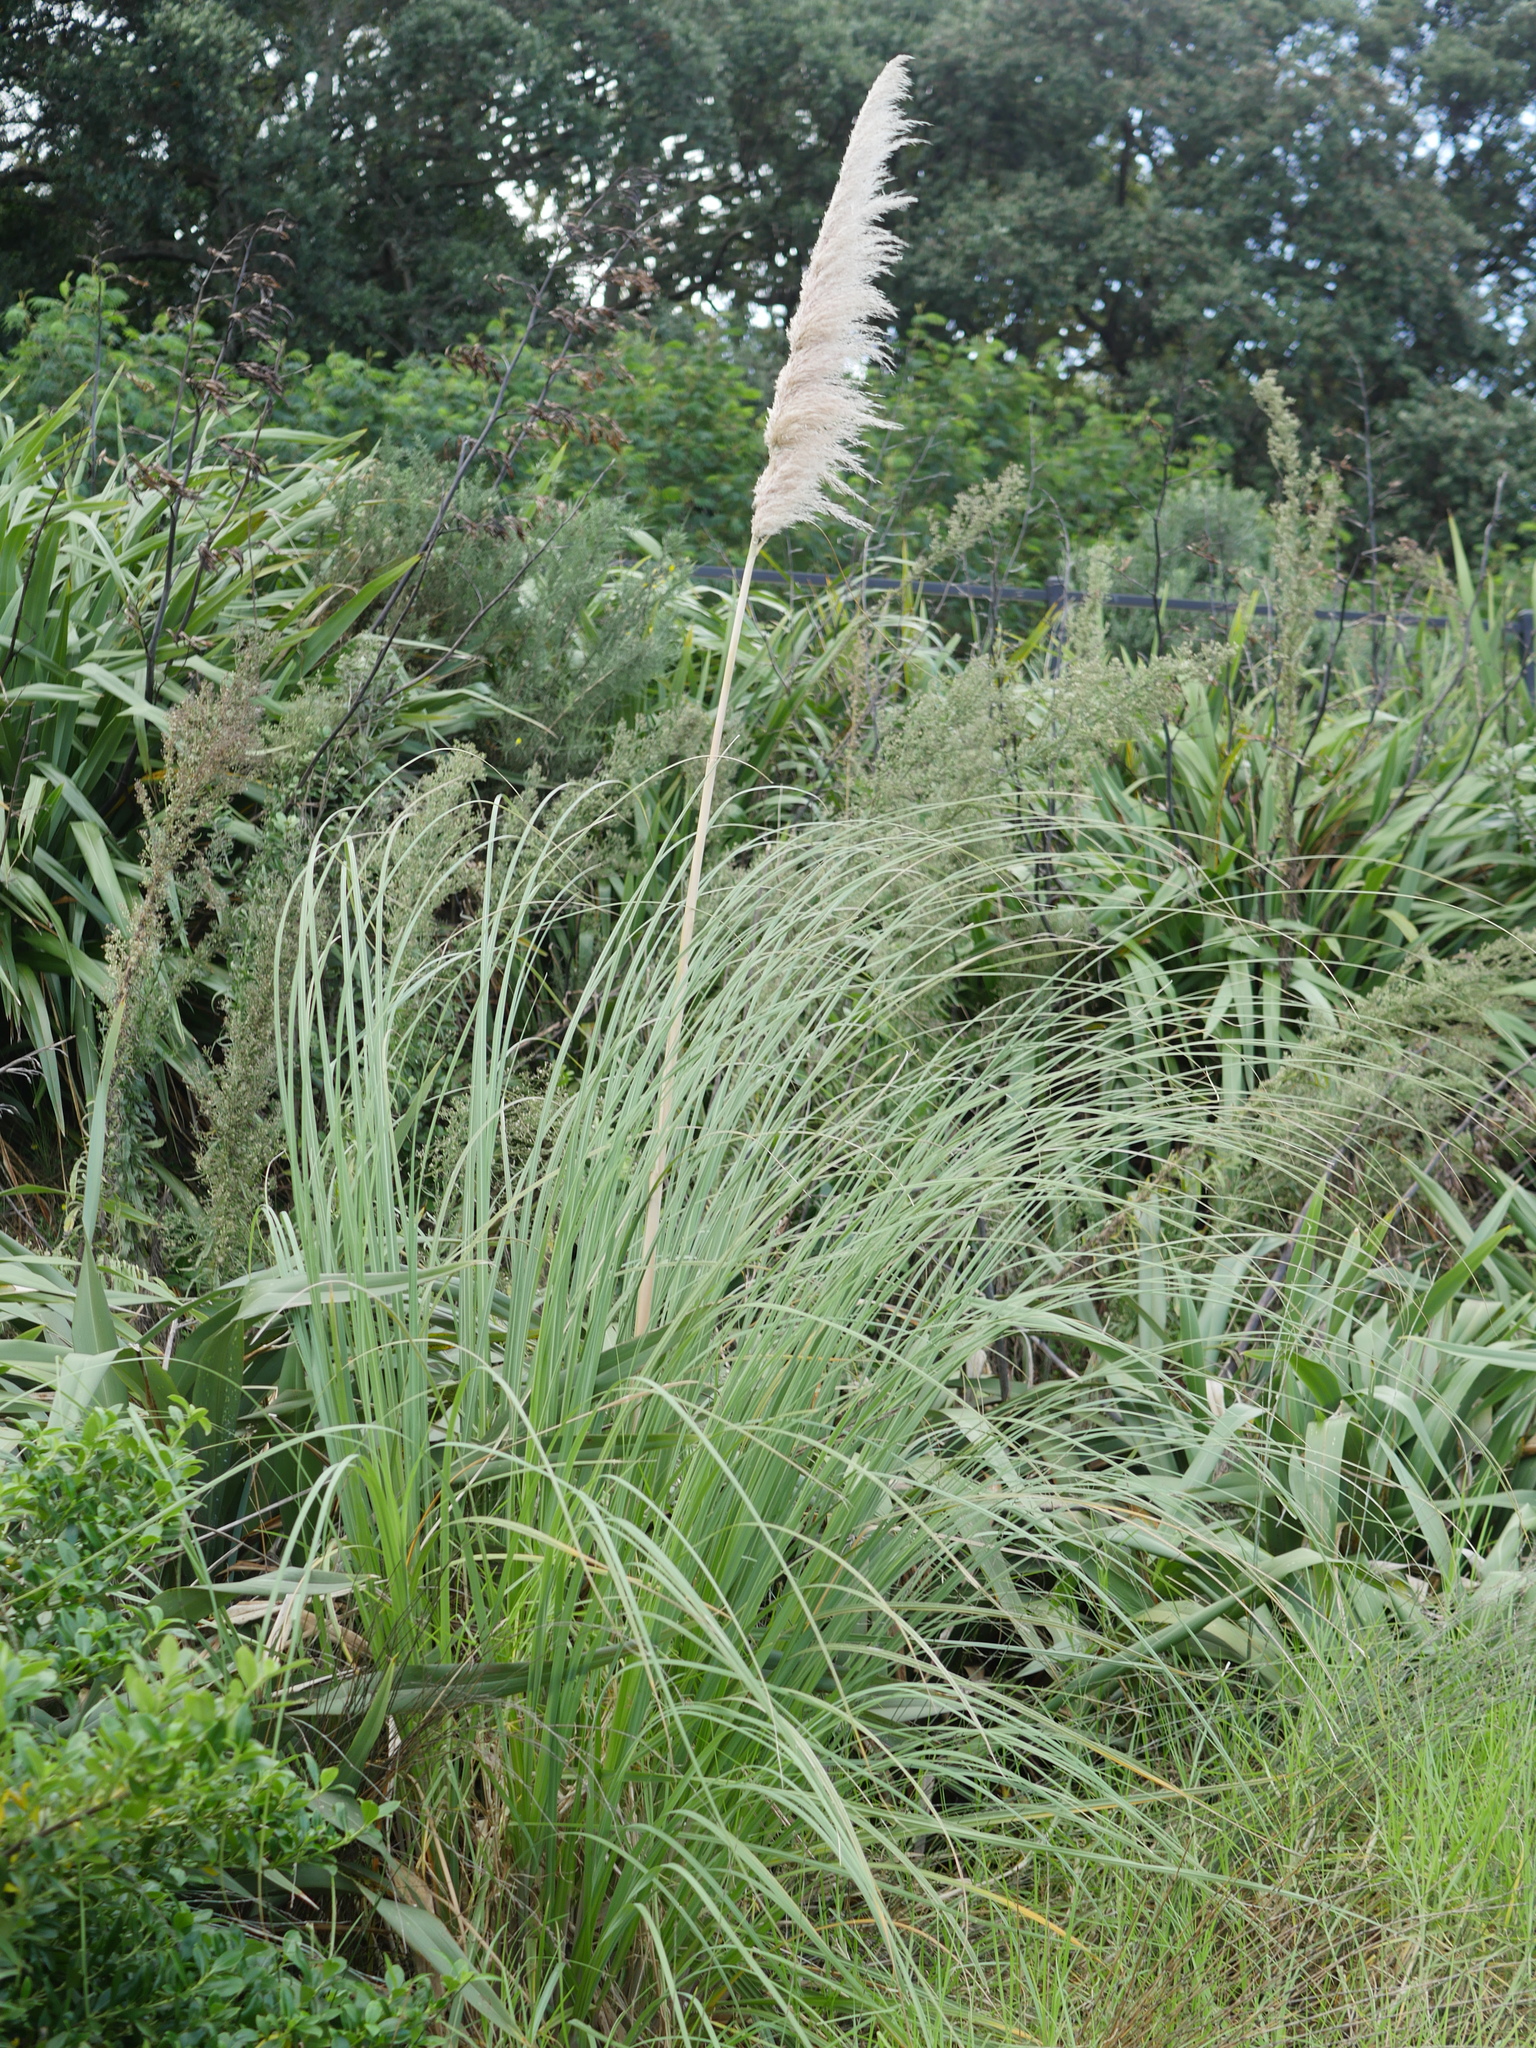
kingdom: Plantae
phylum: Tracheophyta
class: Liliopsida
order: Poales
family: Poaceae
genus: Cortaderia
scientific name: Cortaderia selloana
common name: Uruguayan pampas grass
